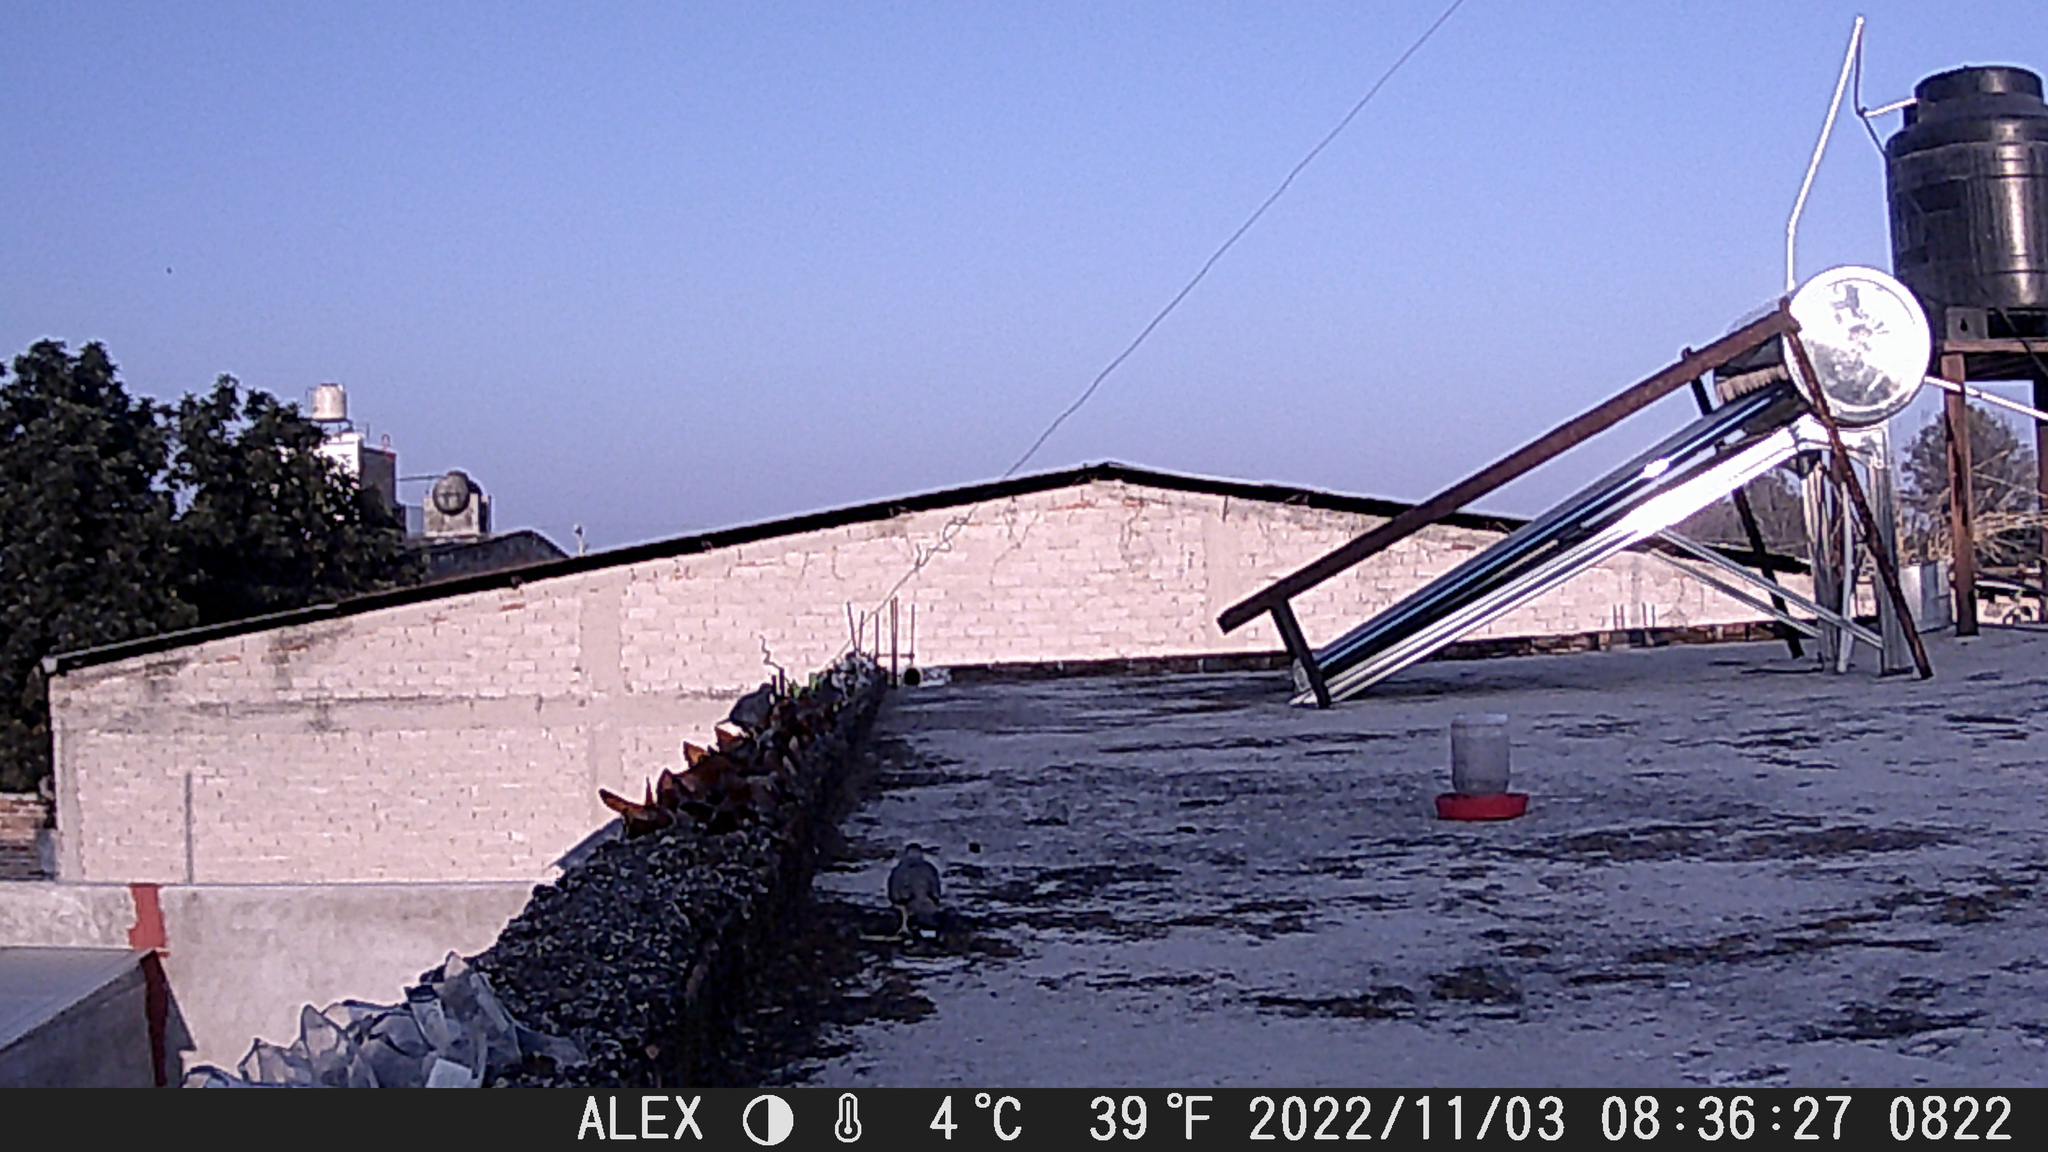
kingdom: Animalia
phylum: Chordata
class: Aves
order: Columbiformes
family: Columbidae
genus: Columbina
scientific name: Columbina inca
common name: Inca dove
